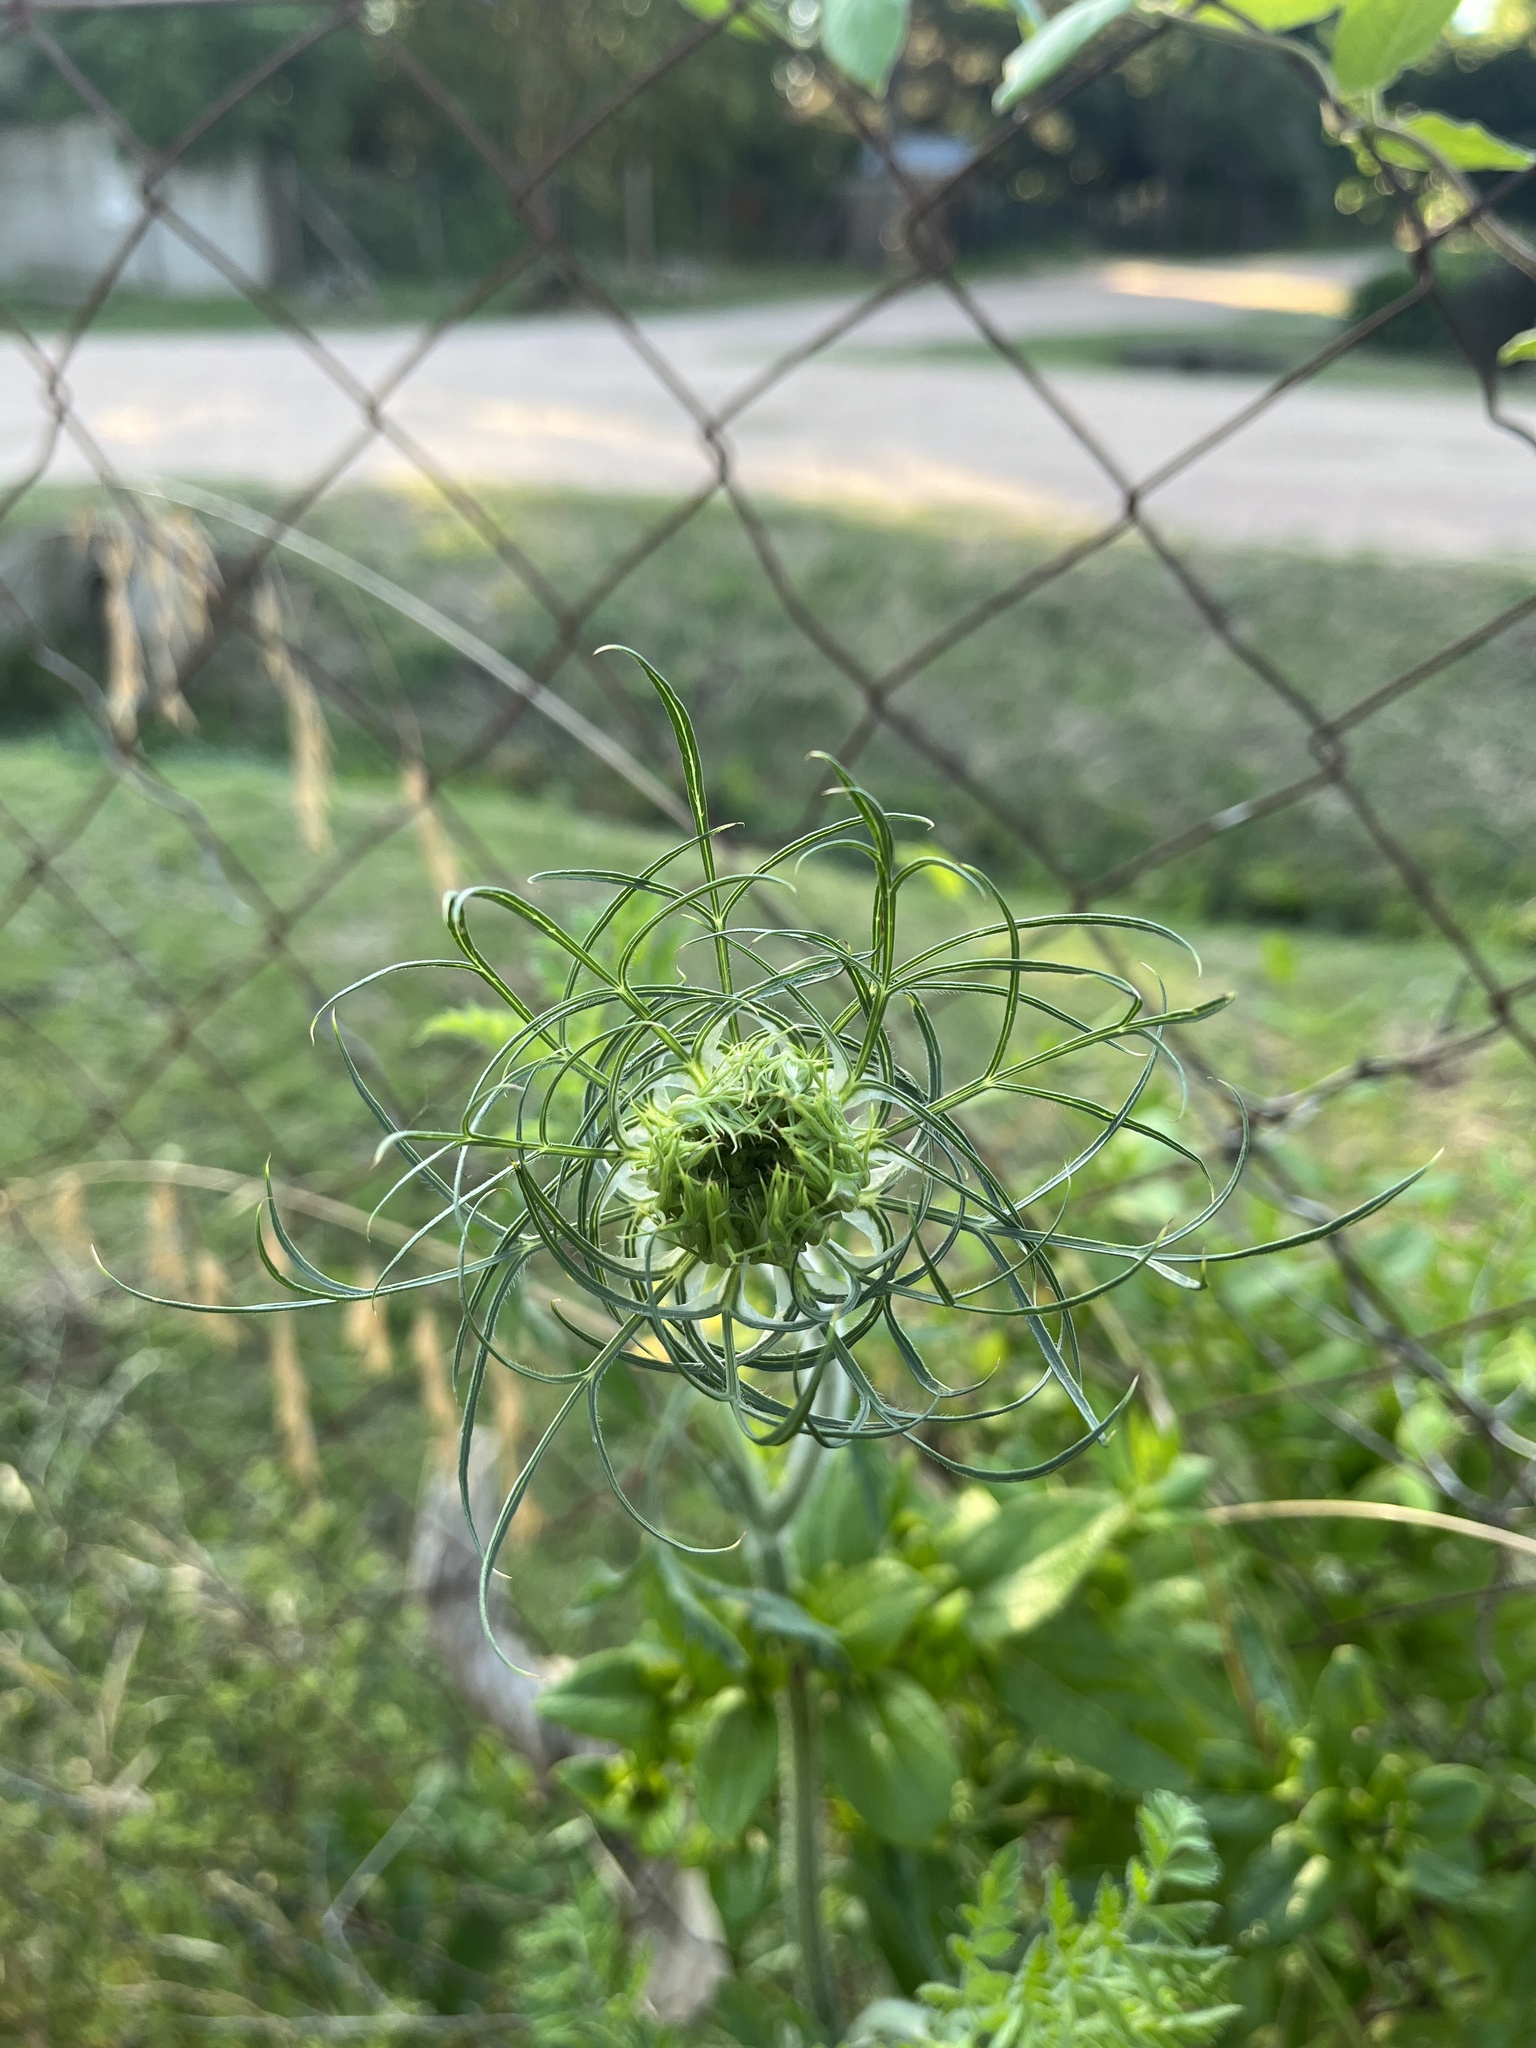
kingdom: Plantae
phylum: Tracheophyta
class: Magnoliopsida
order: Apiales
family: Apiaceae
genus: Daucus
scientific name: Daucus carota
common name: Wild carrot
